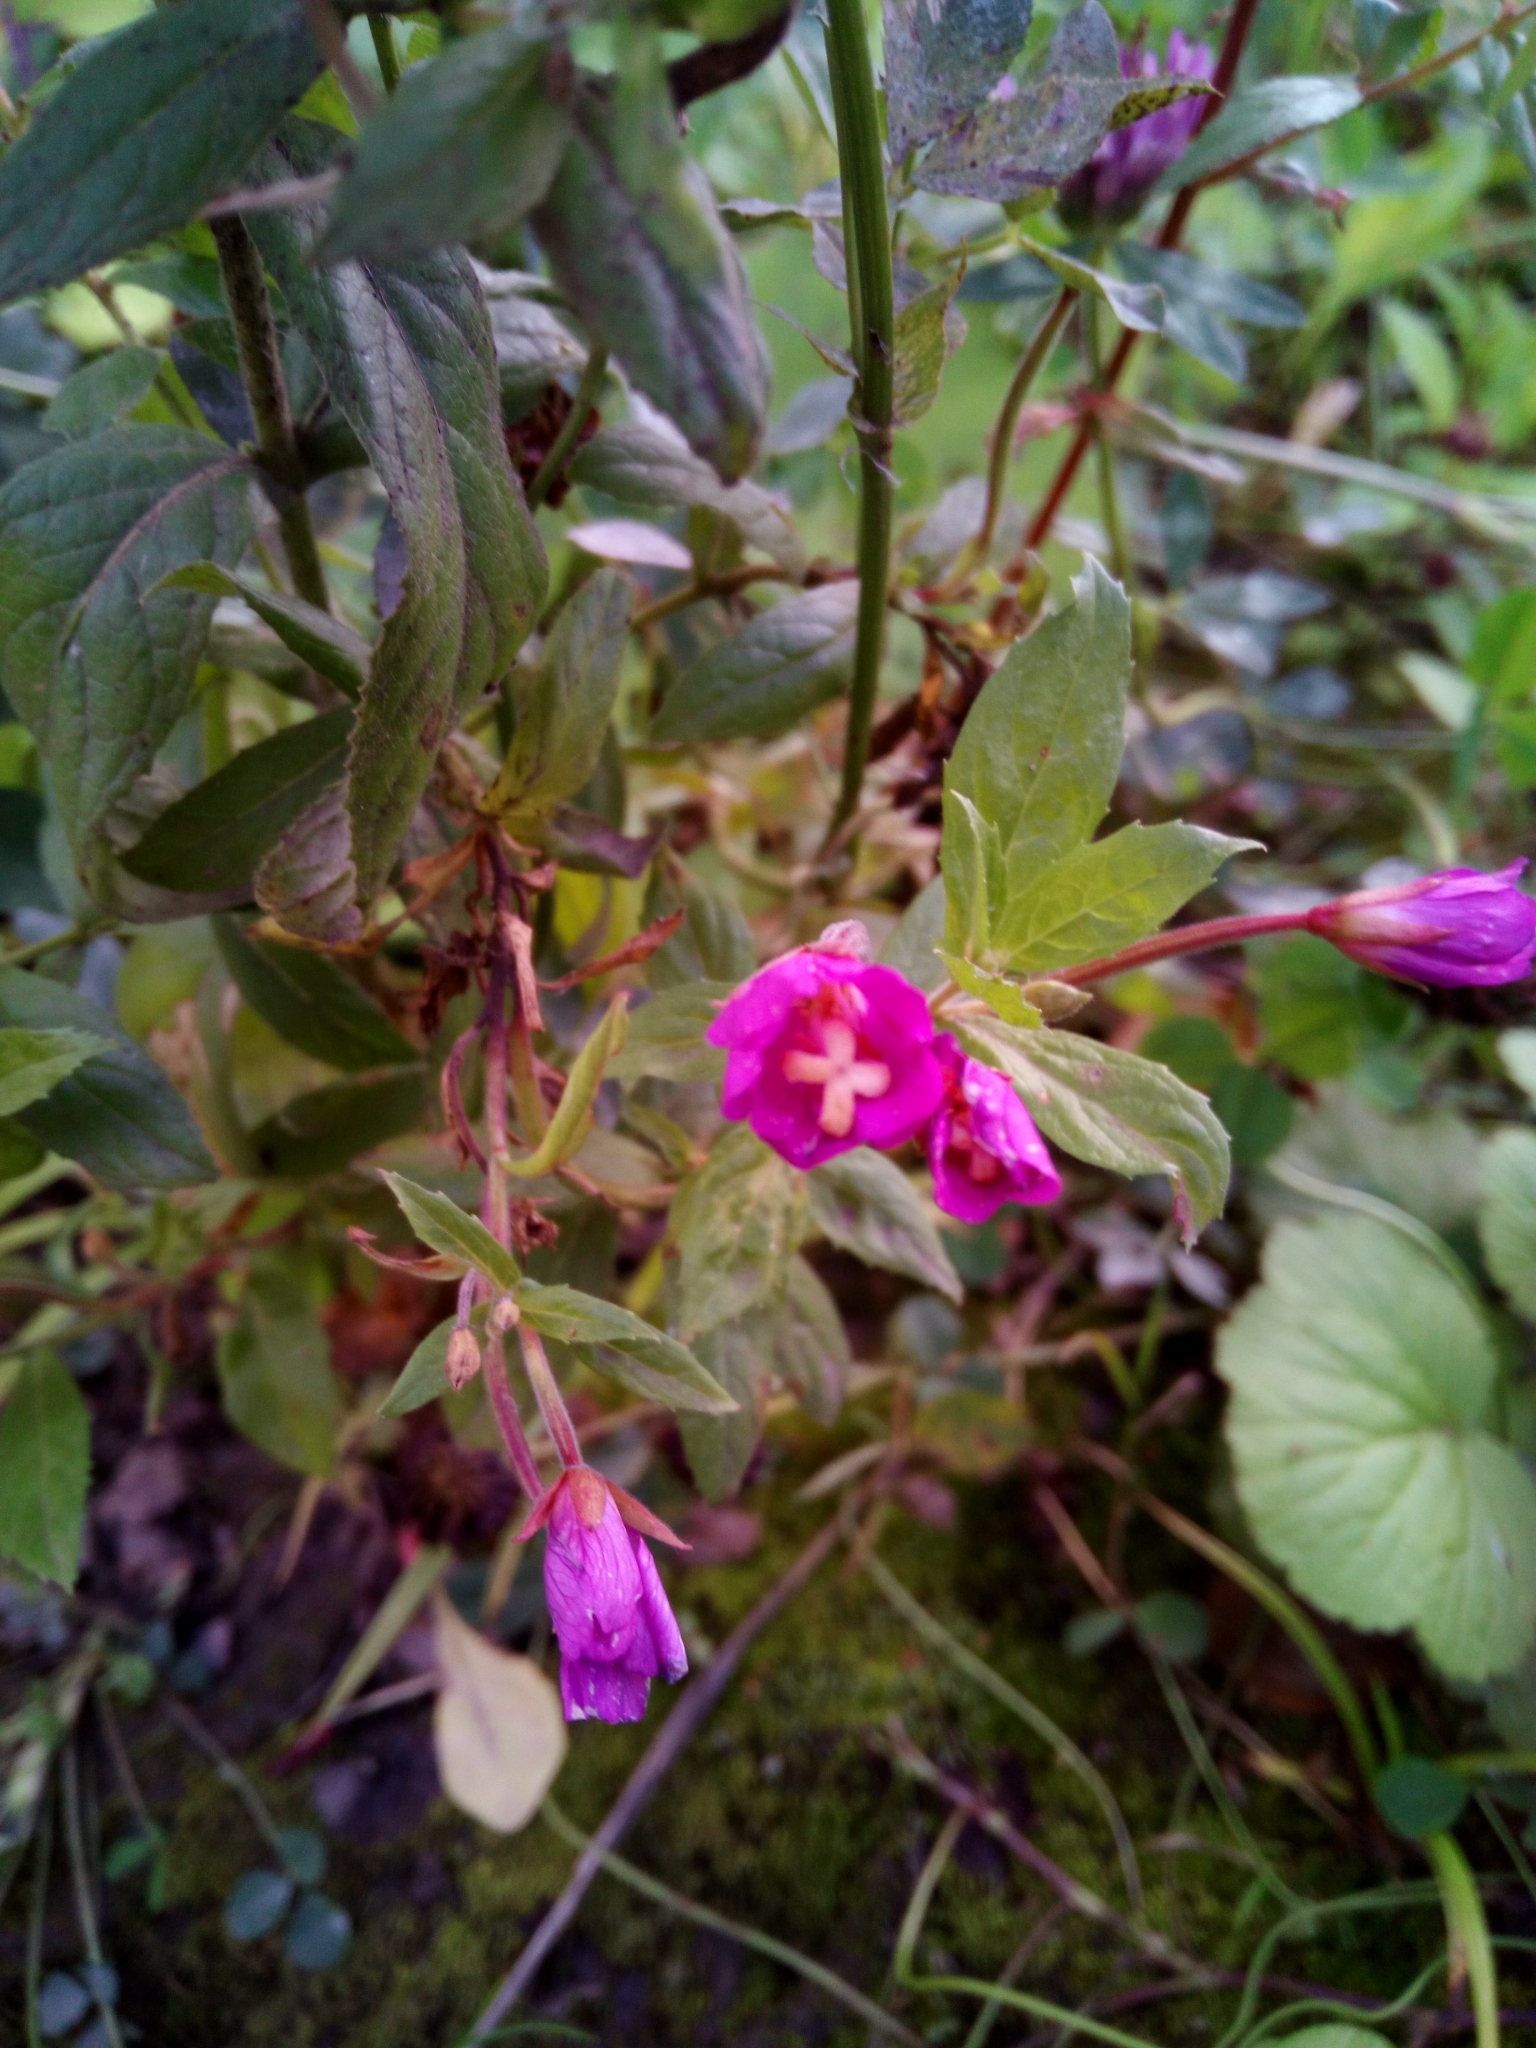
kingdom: Plantae
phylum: Tracheophyta
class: Magnoliopsida
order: Myrtales
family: Onagraceae
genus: Epilobium
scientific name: Epilobium hirsutum
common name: Great willowherb
